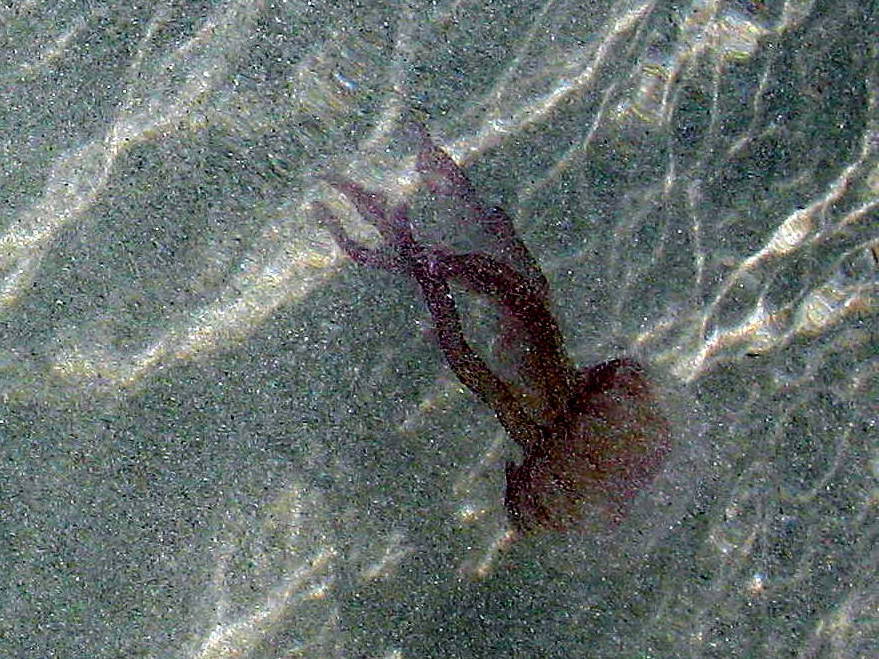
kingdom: Animalia
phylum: Cnidaria
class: Scyphozoa
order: Semaeostomeae
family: Pelagiidae
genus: Pelagia
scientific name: Pelagia noctiluca
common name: Mauve stinger
